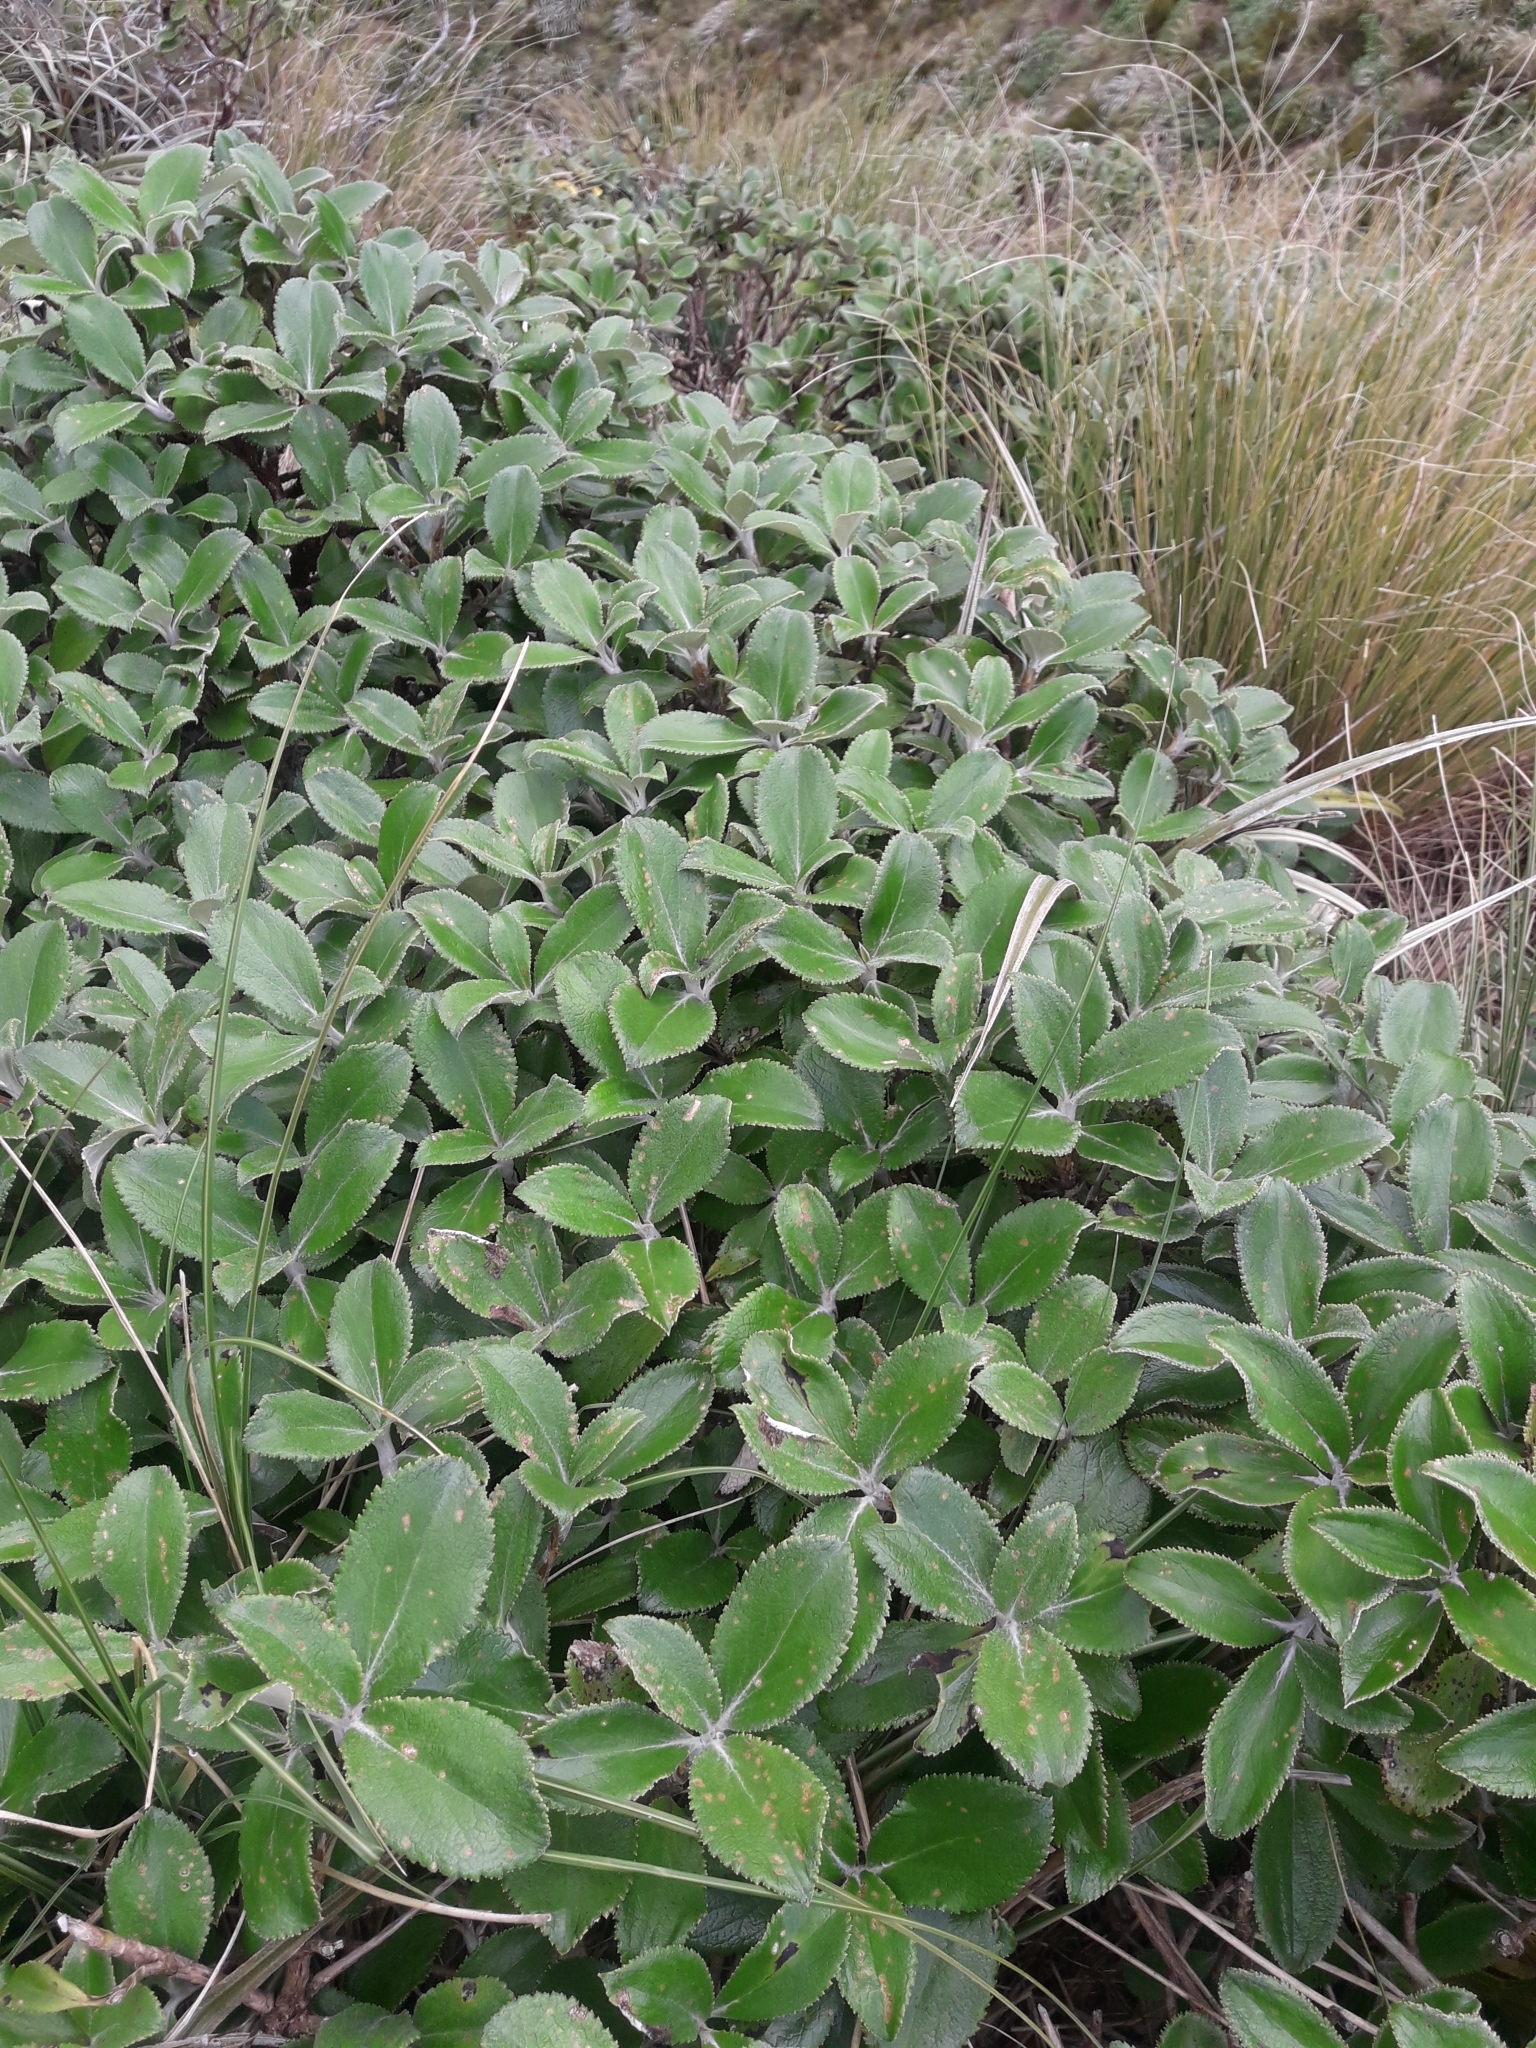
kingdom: Plantae
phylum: Tracheophyta
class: Magnoliopsida
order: Asterales
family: Asteraceae
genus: Macrolearia
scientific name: Macrolearia colensoi
